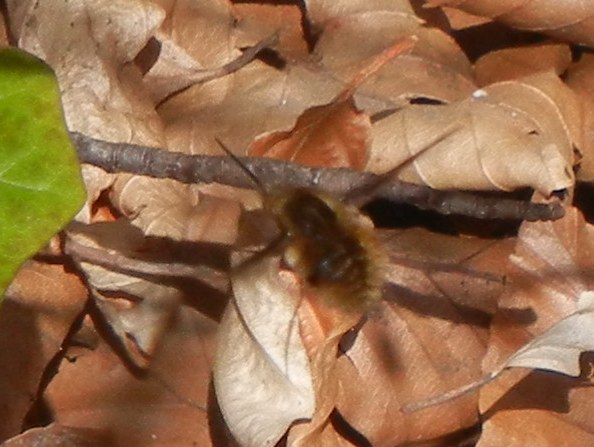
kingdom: Animalia
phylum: Arthropoda
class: Insecta
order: Diptera
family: Bombyliidae
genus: Bombylius
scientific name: Bombylius major
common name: Bee fly
